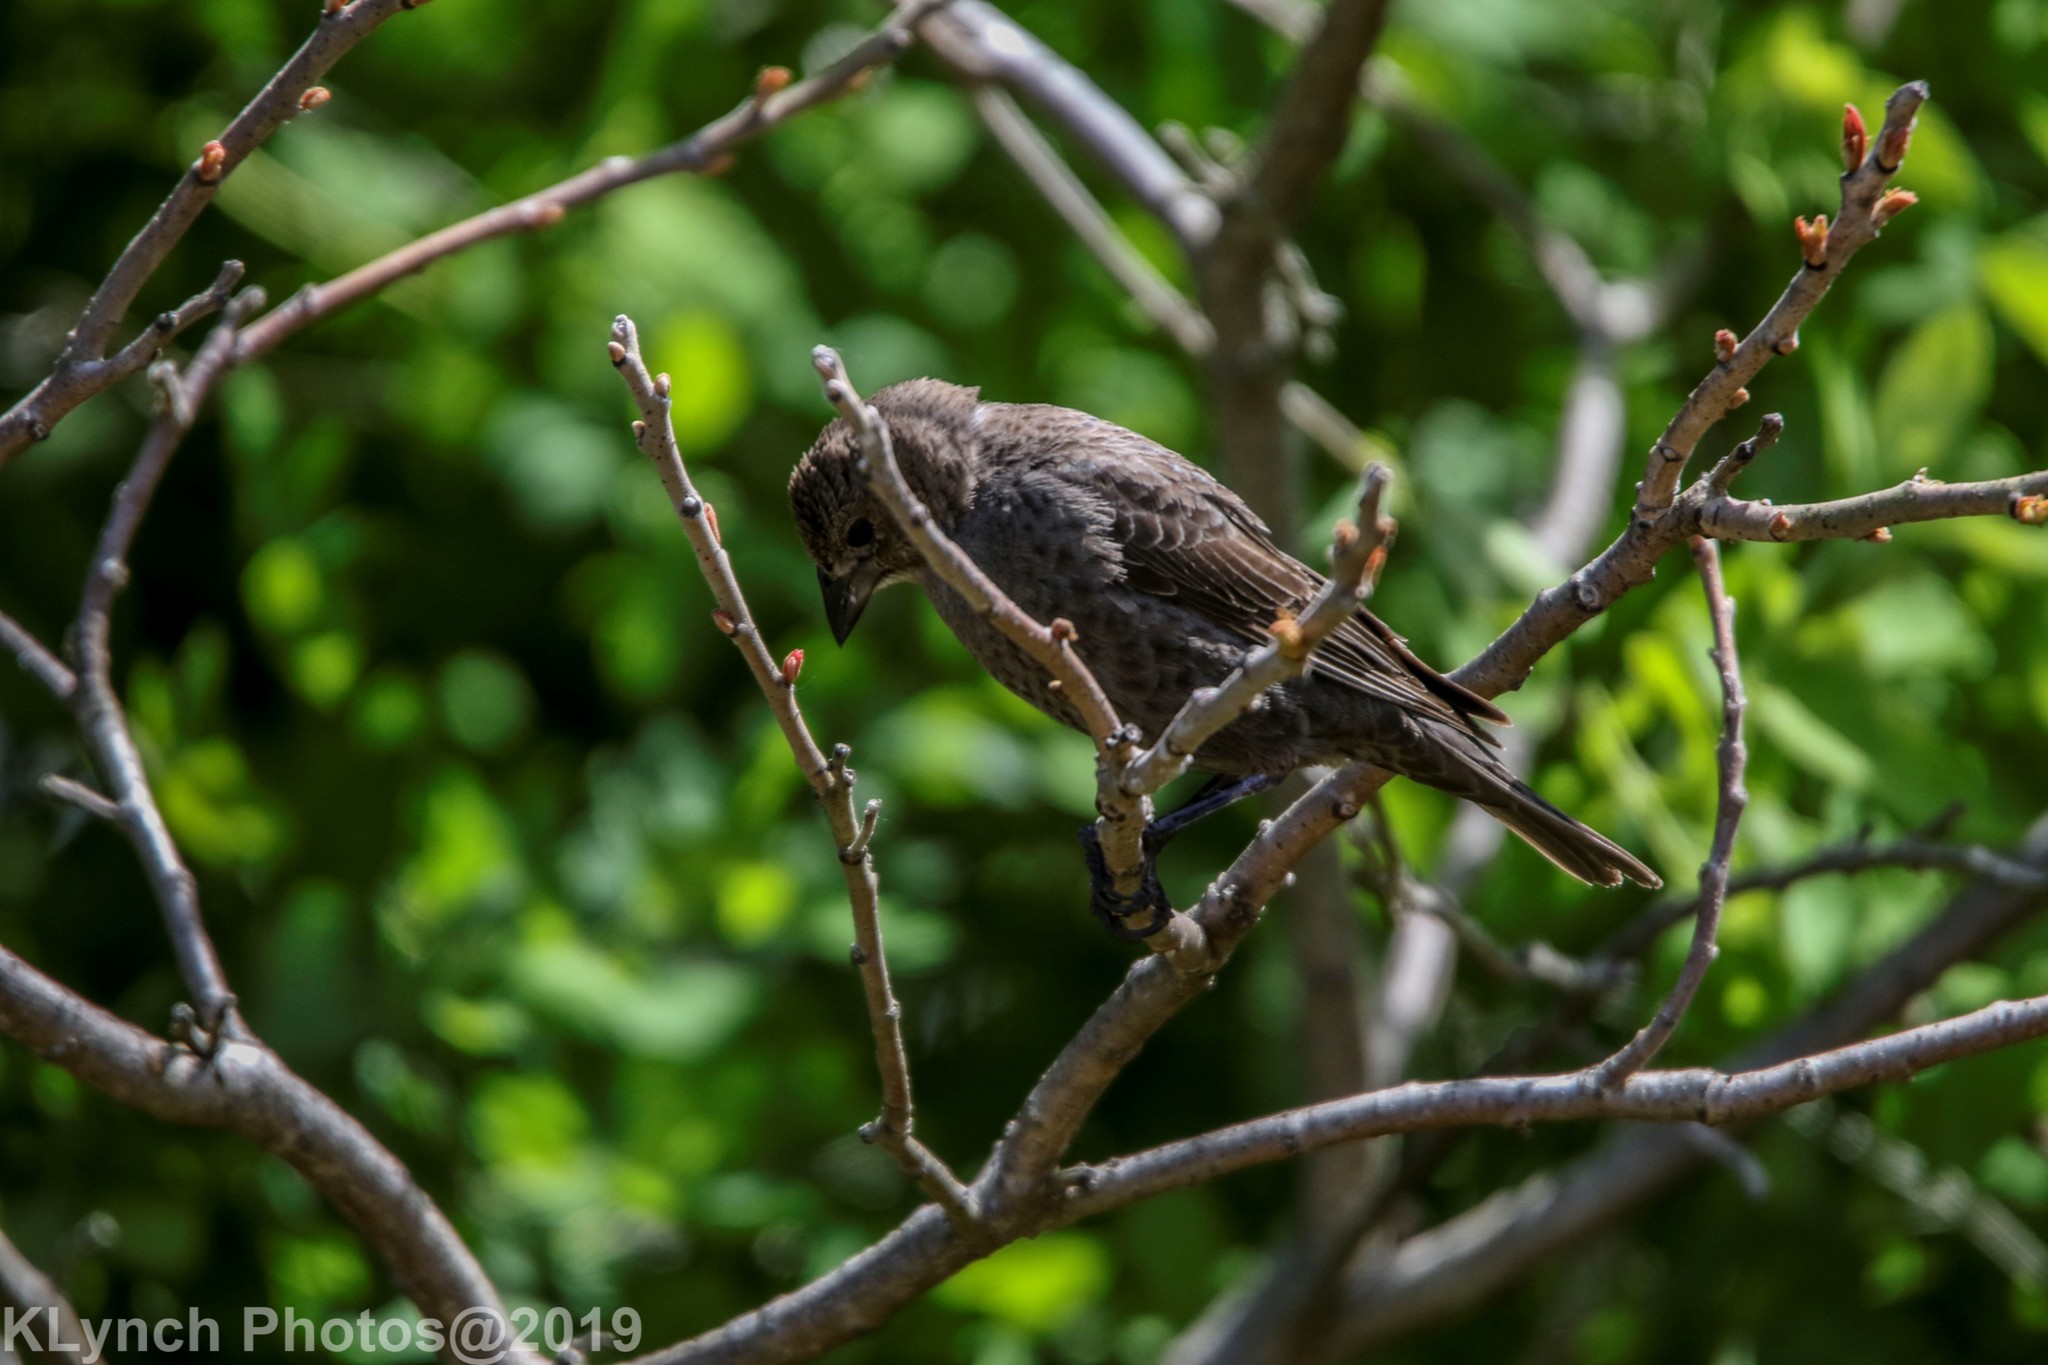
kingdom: Animalia
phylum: Chordata
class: Aves
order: Passeriformes
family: Icteridae
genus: Molothrus
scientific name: Molothrus ater
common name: Brown-headed cowbird
